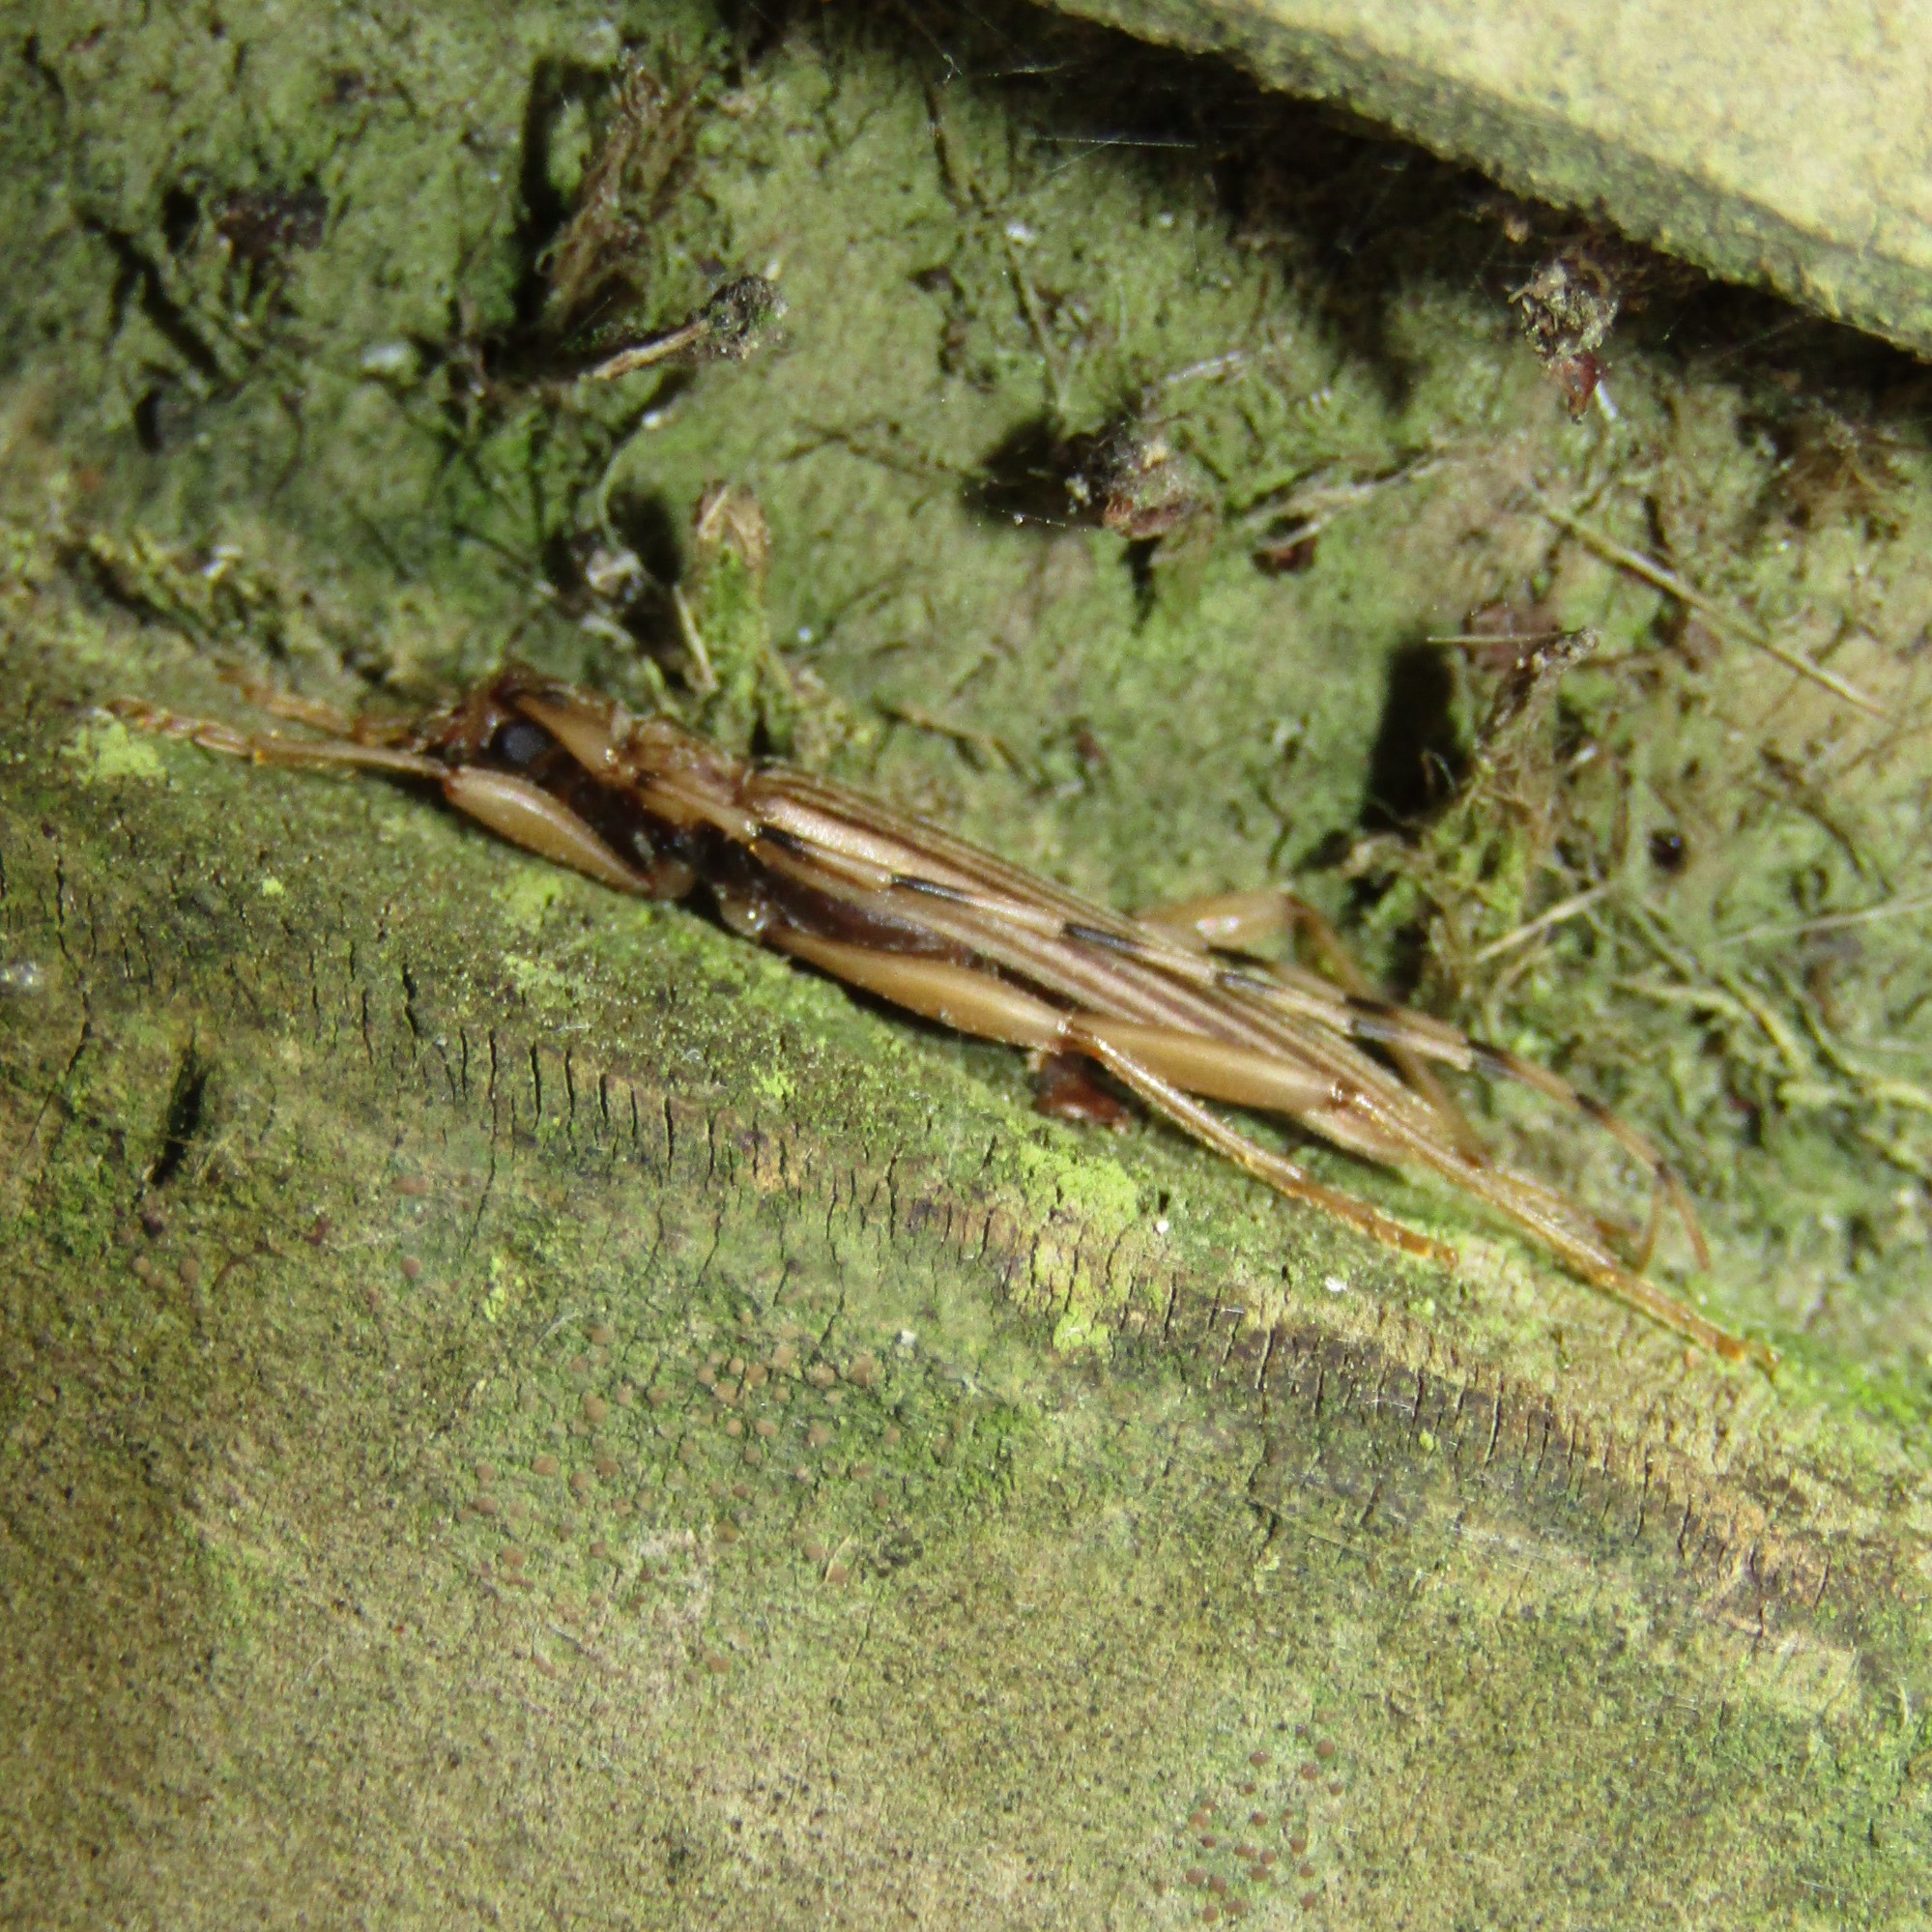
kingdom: Animalia
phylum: Arthropoda
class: Insecta
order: Coleoptera
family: Cerambycidae
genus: Leptachrous
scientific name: Leptachrous strigipennis
